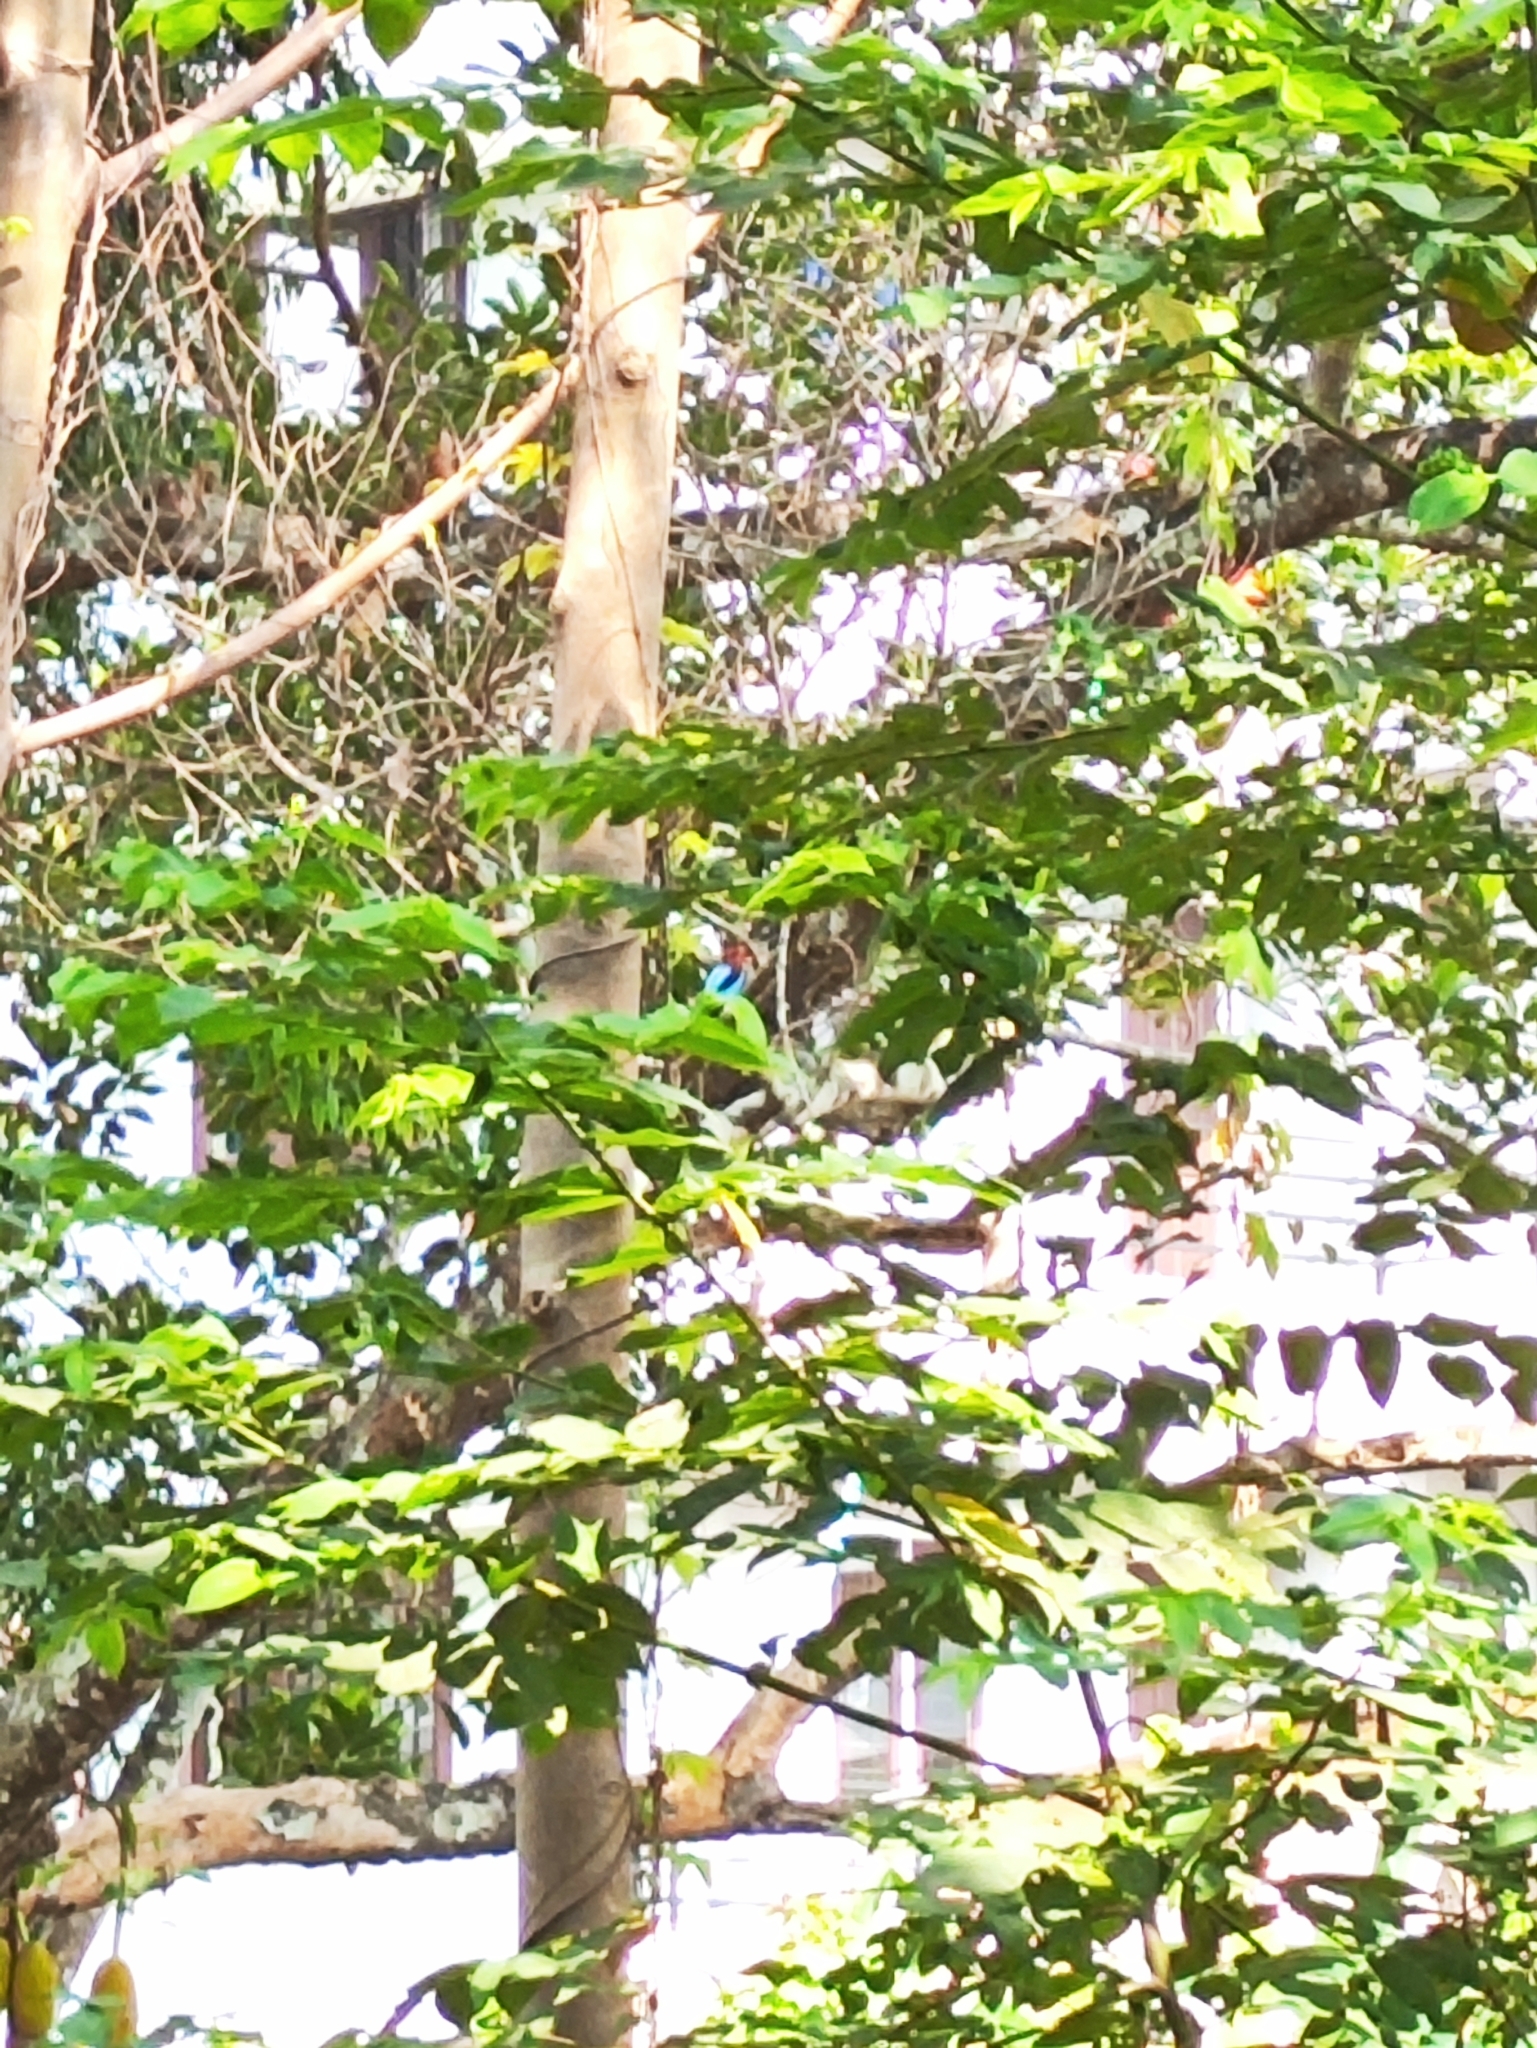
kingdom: Animalia
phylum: Chordata
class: Aves
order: Coraciiformes
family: Alcedinidae
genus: Halcyon
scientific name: Halcyon smyrnensis
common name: White-throated kingfisher
